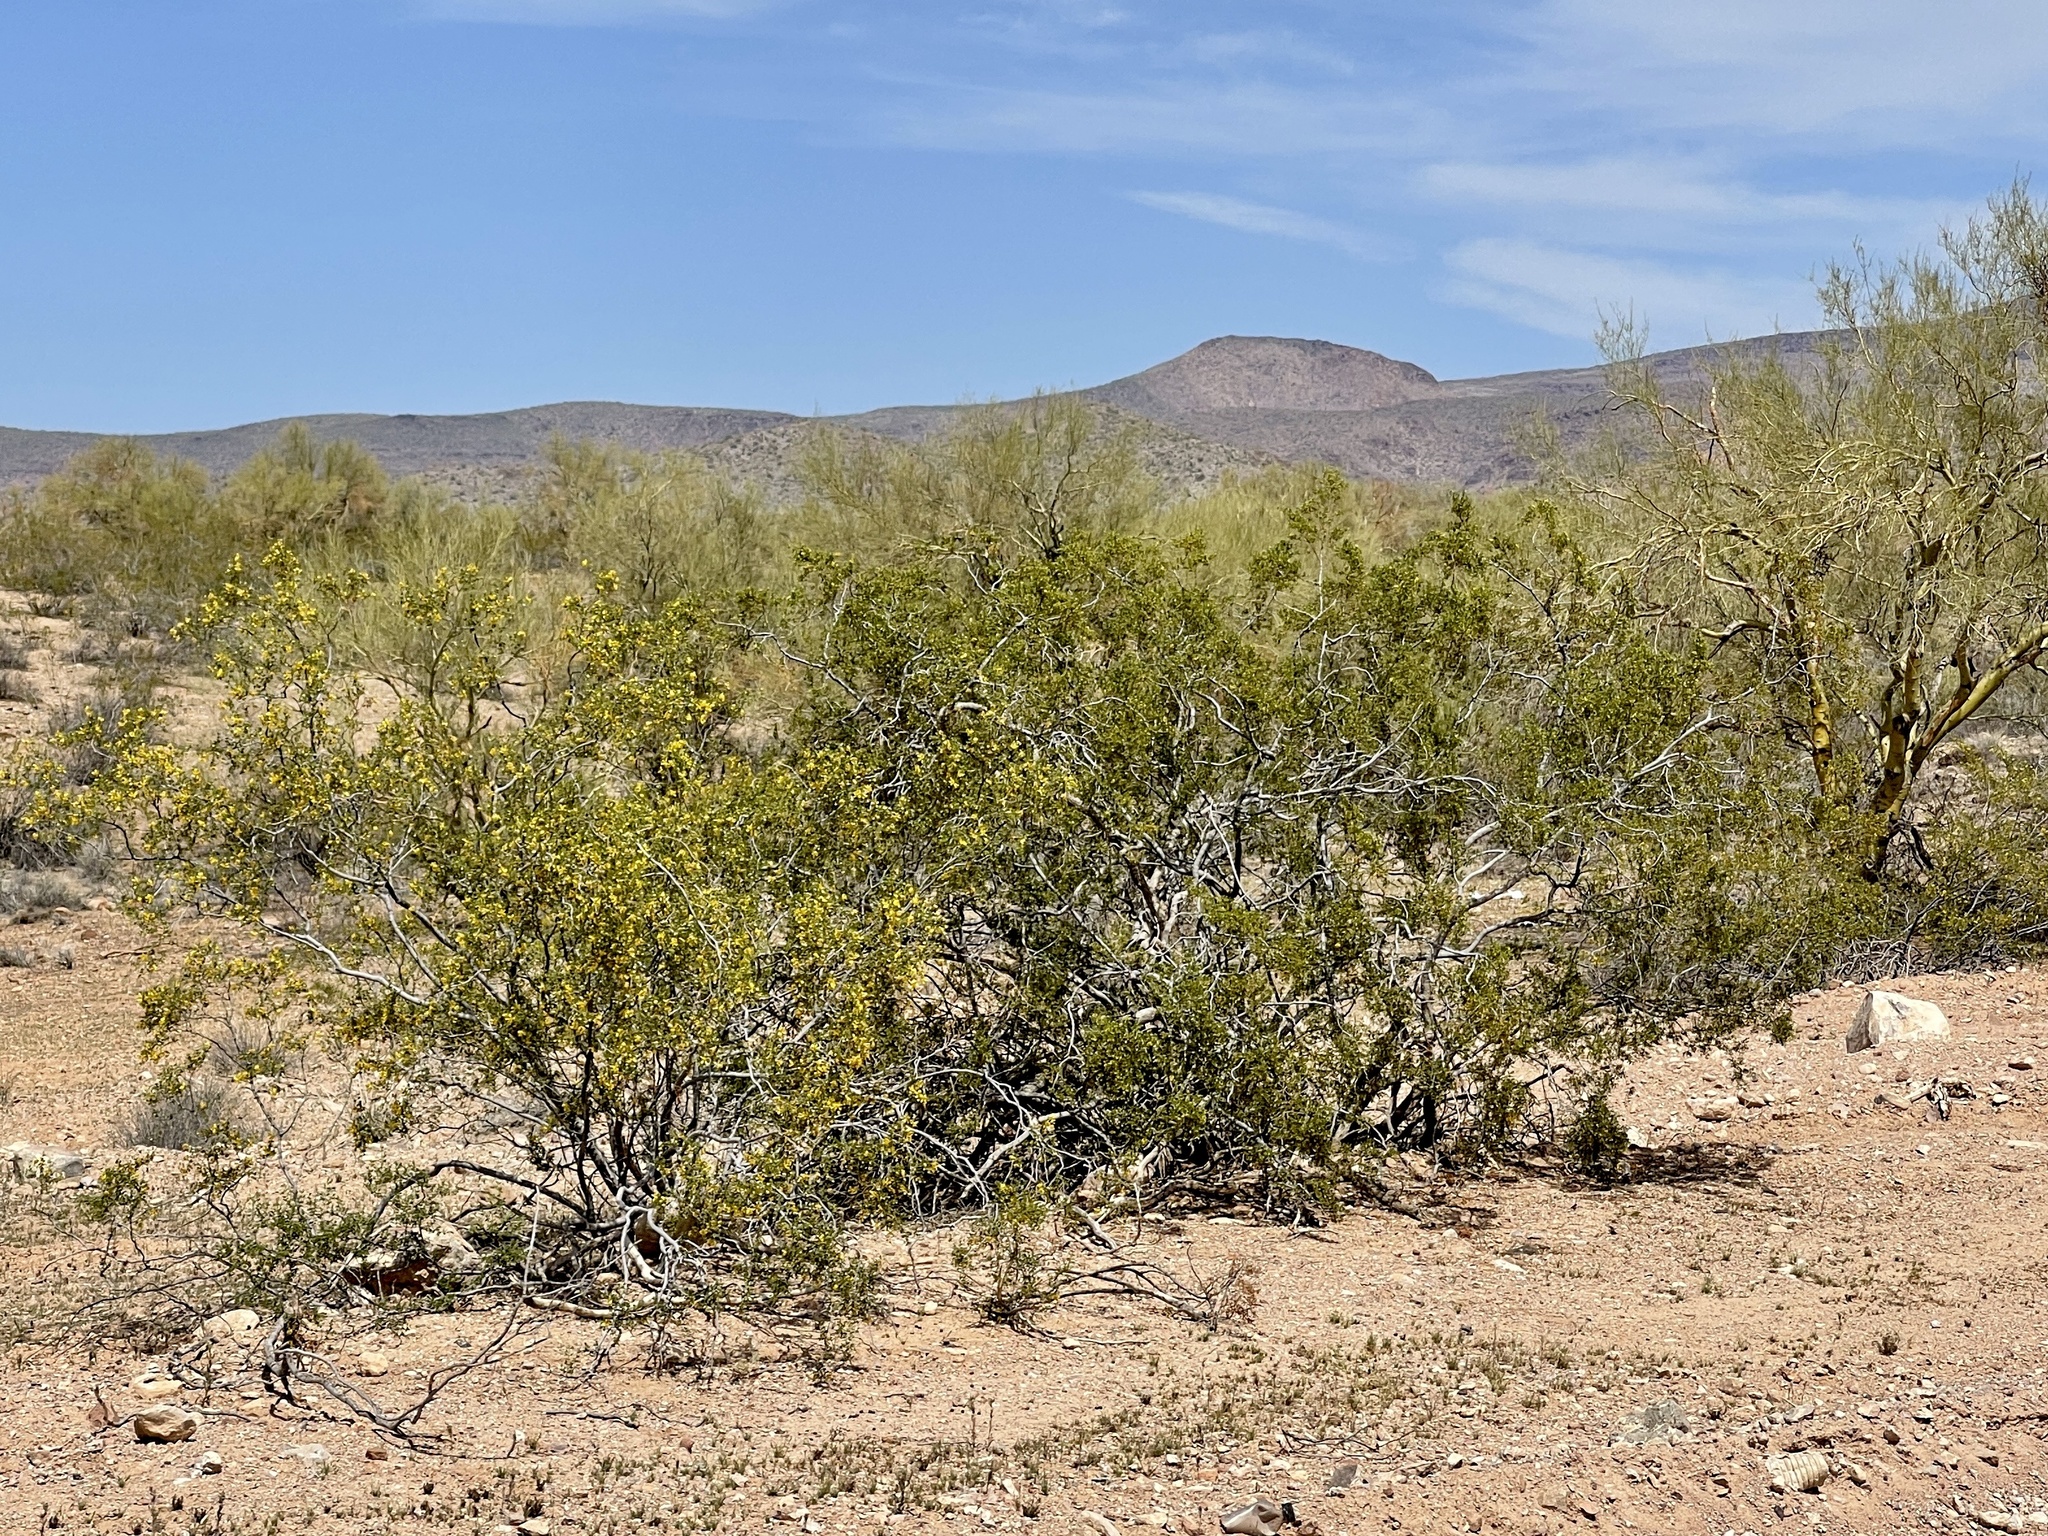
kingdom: Plantae
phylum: Tracheophyta
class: Magnoliopsida
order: Zygophyllales
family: Zygophyllaceae
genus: Larrea
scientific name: Larrea tridentata
